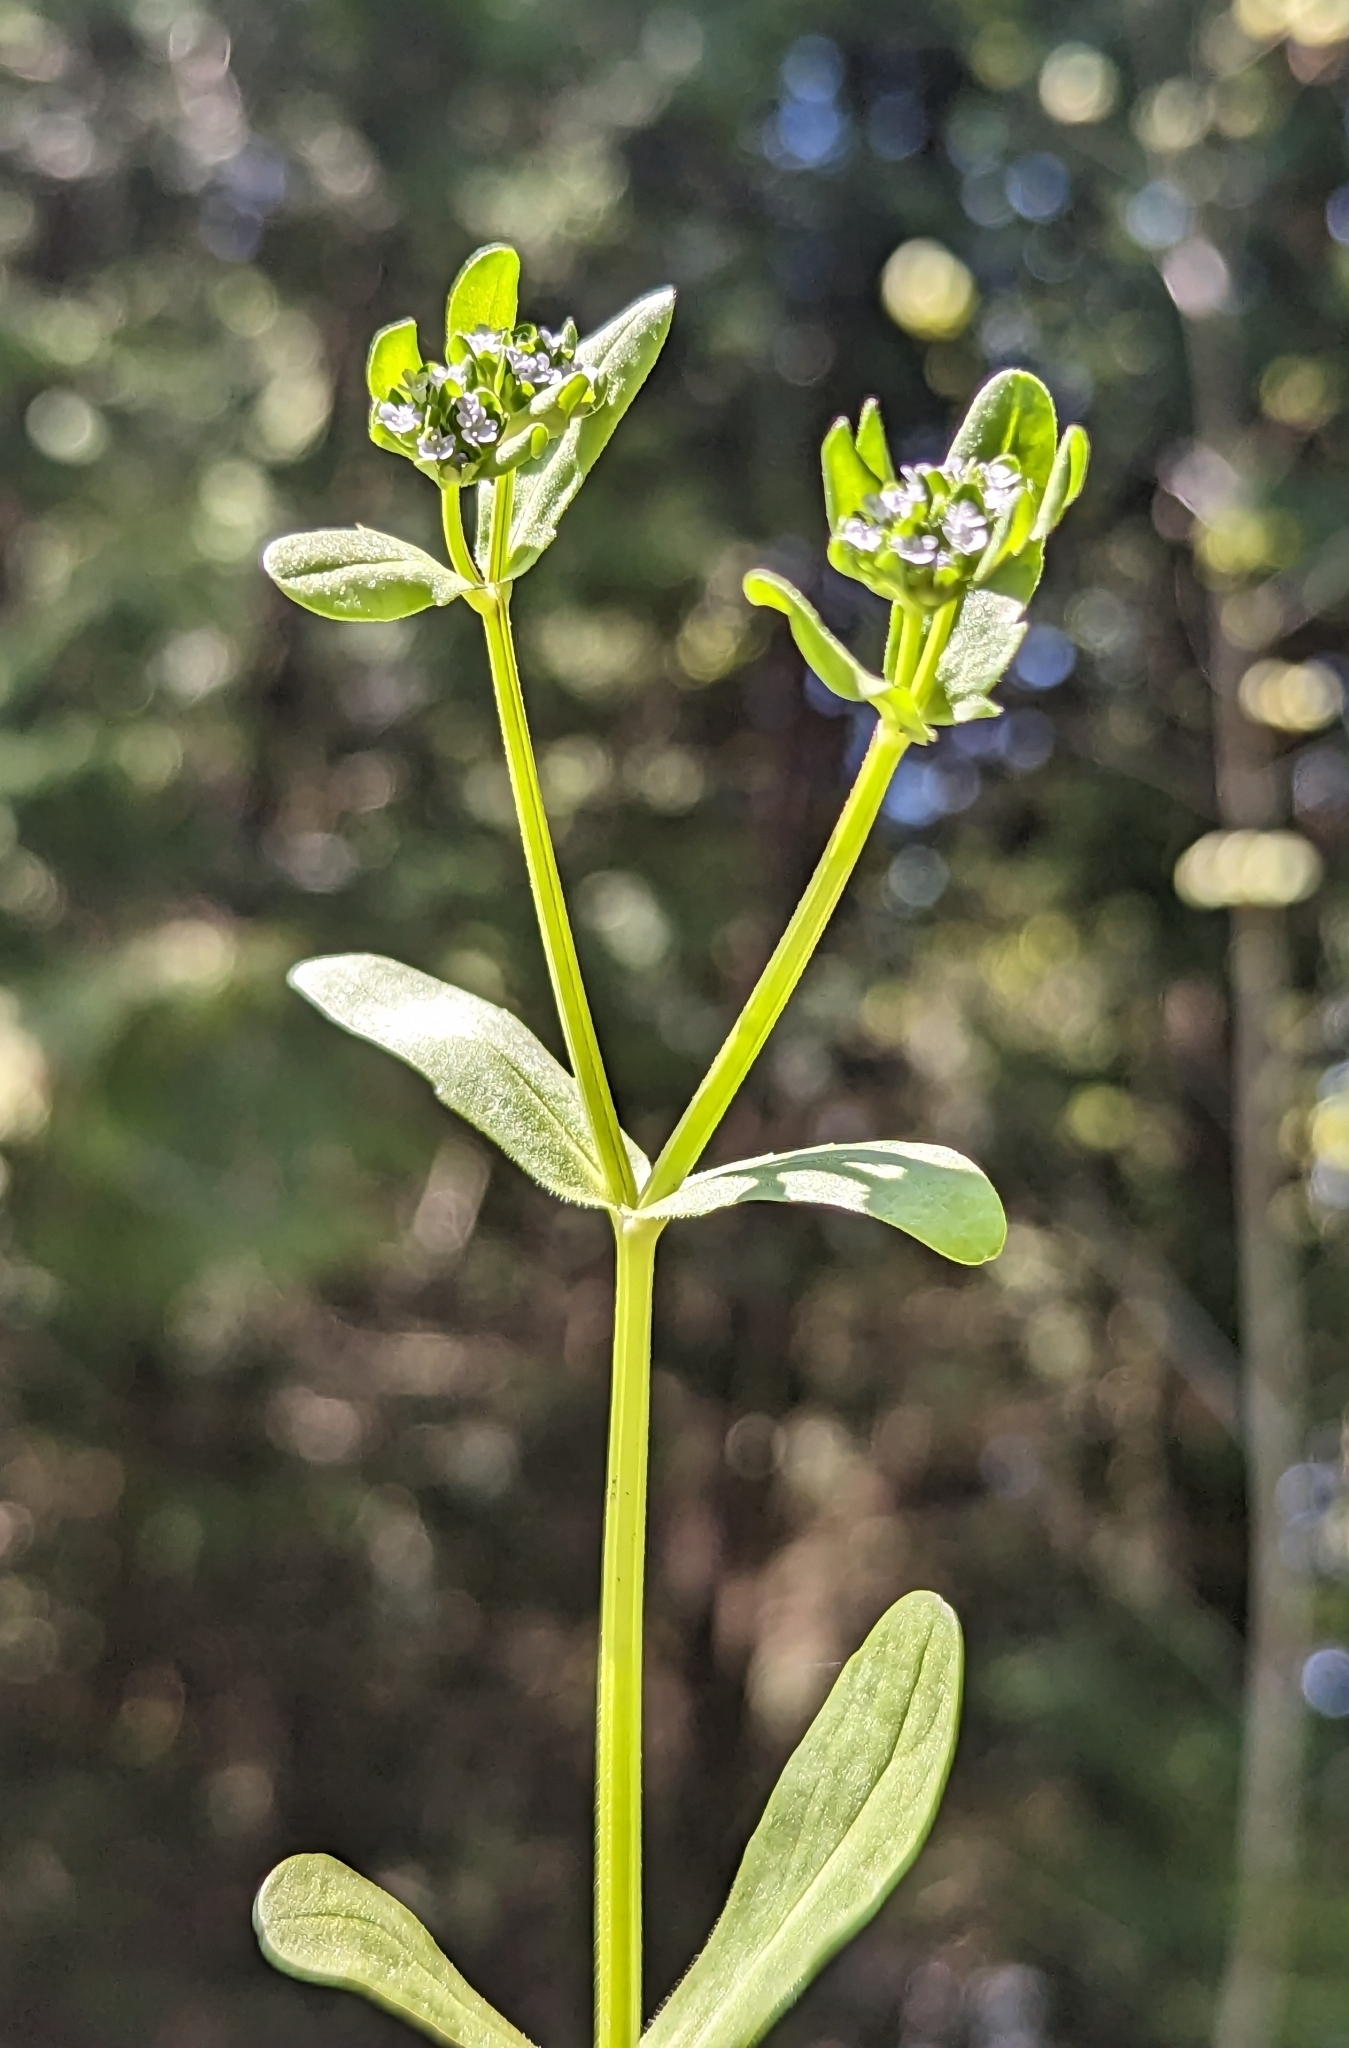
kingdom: Plantae
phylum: Tracheophyta
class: Magnoliopsida
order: Dipsacales
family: Caprifoliaceae
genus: Valerianella
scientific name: Valerianella locusta
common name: Common cornsalad
